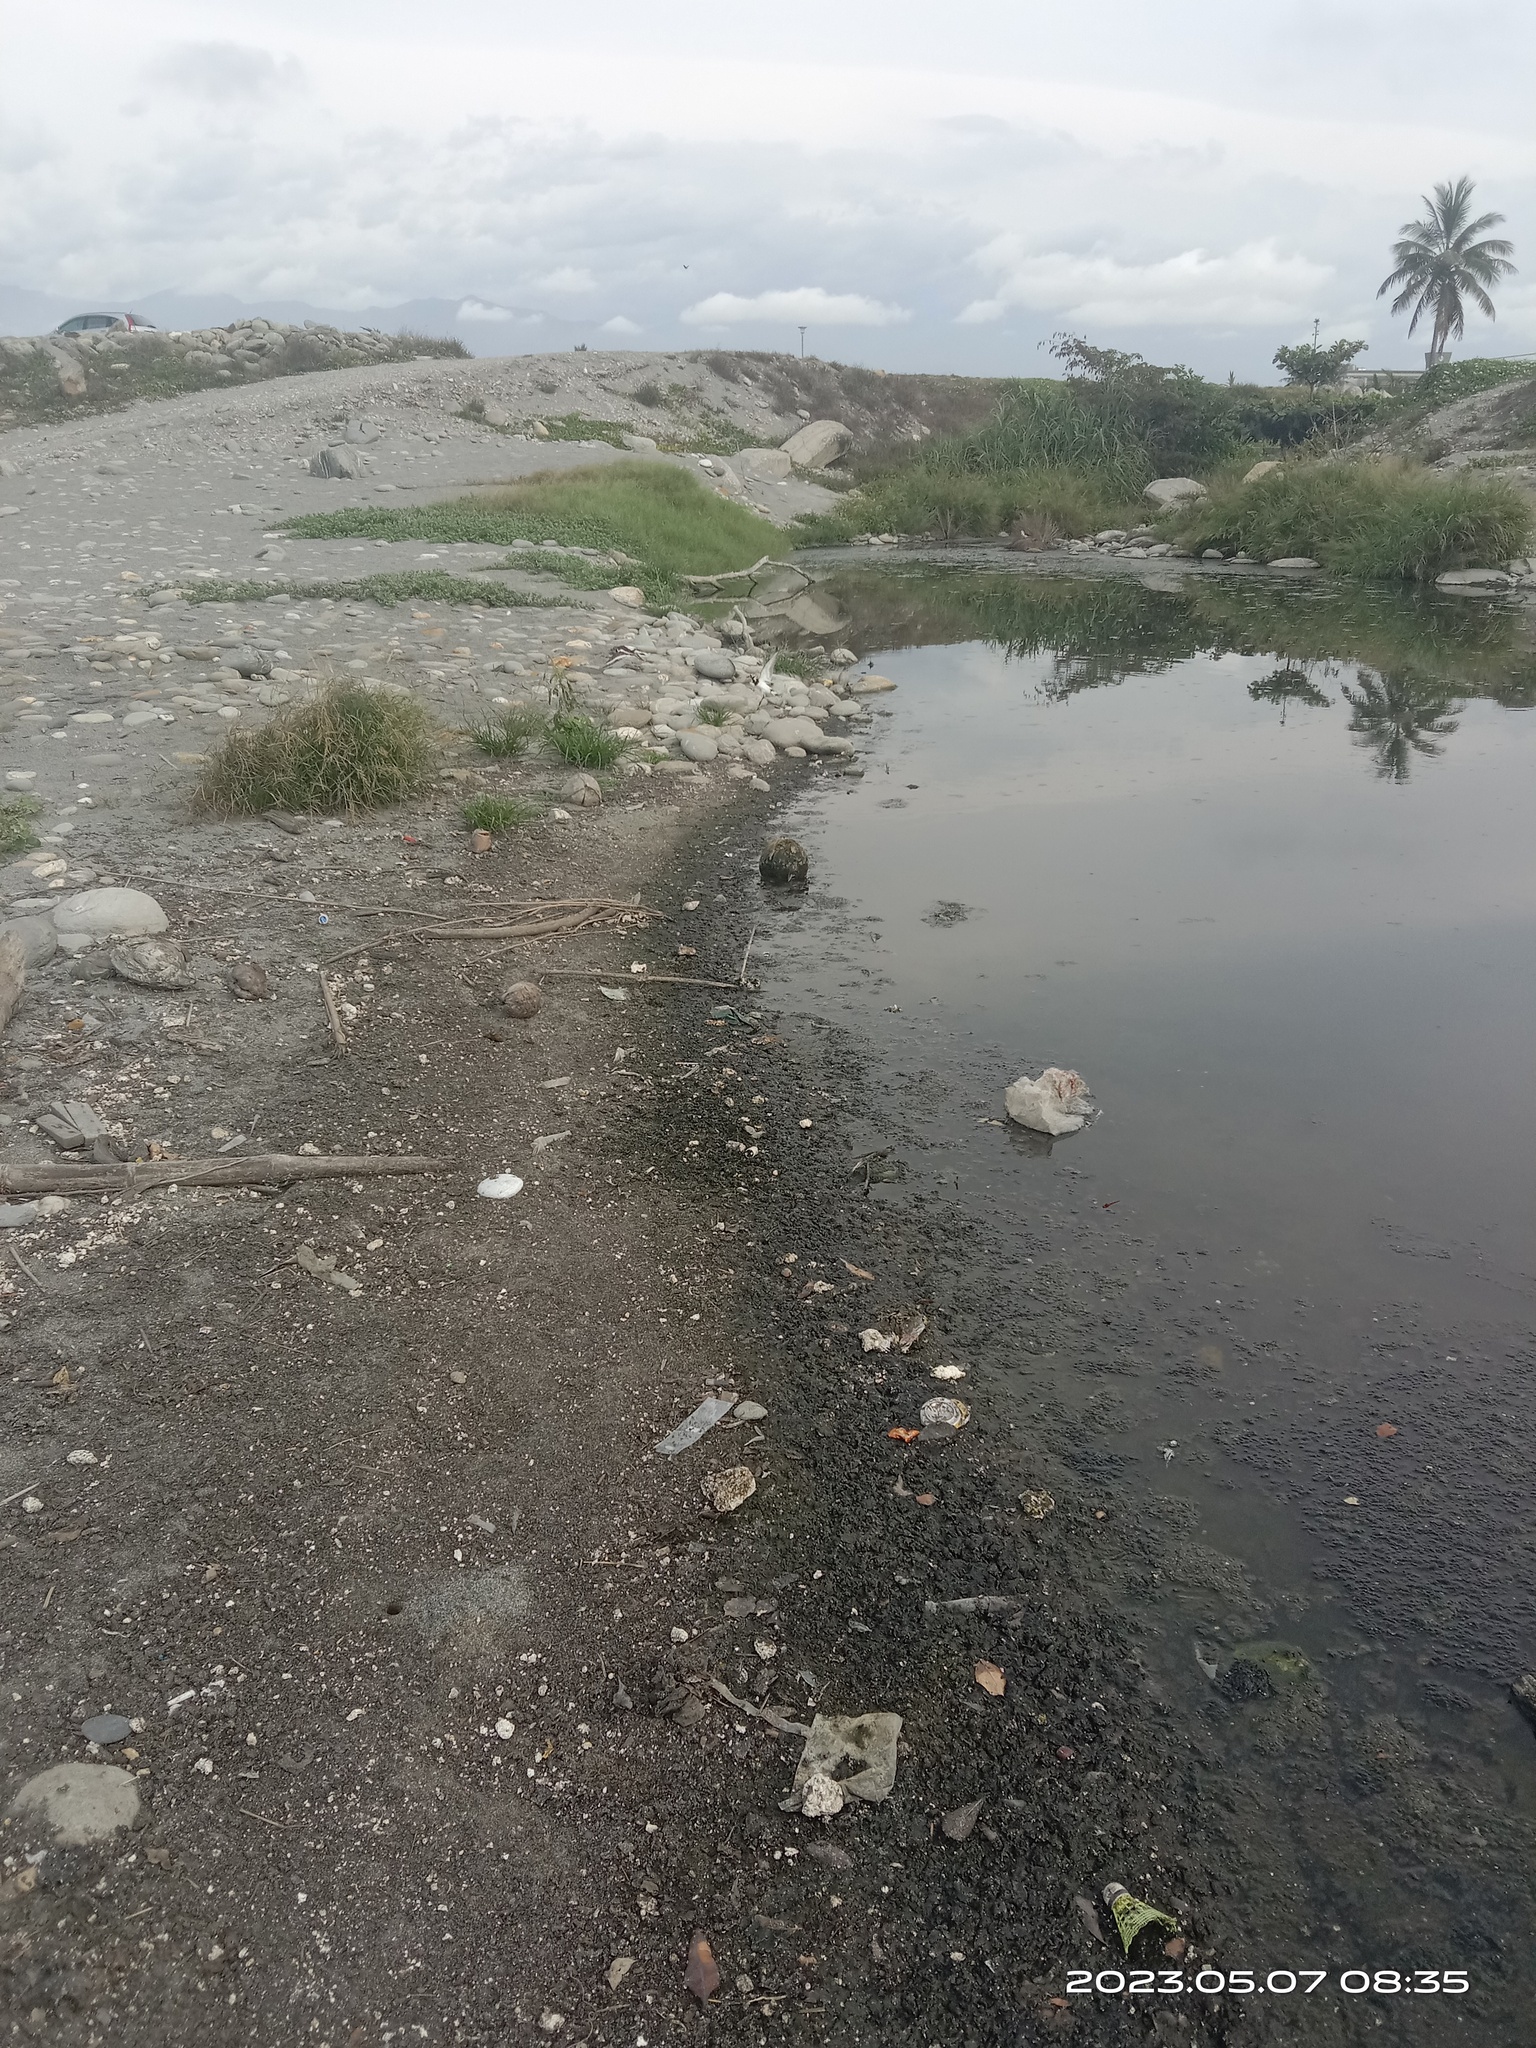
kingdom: Animalia
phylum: Chordata
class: Aves
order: Charadriiformes
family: Scolopacidae
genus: Arenaria
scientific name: Arenaria interpres
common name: Ruddy turnstone
